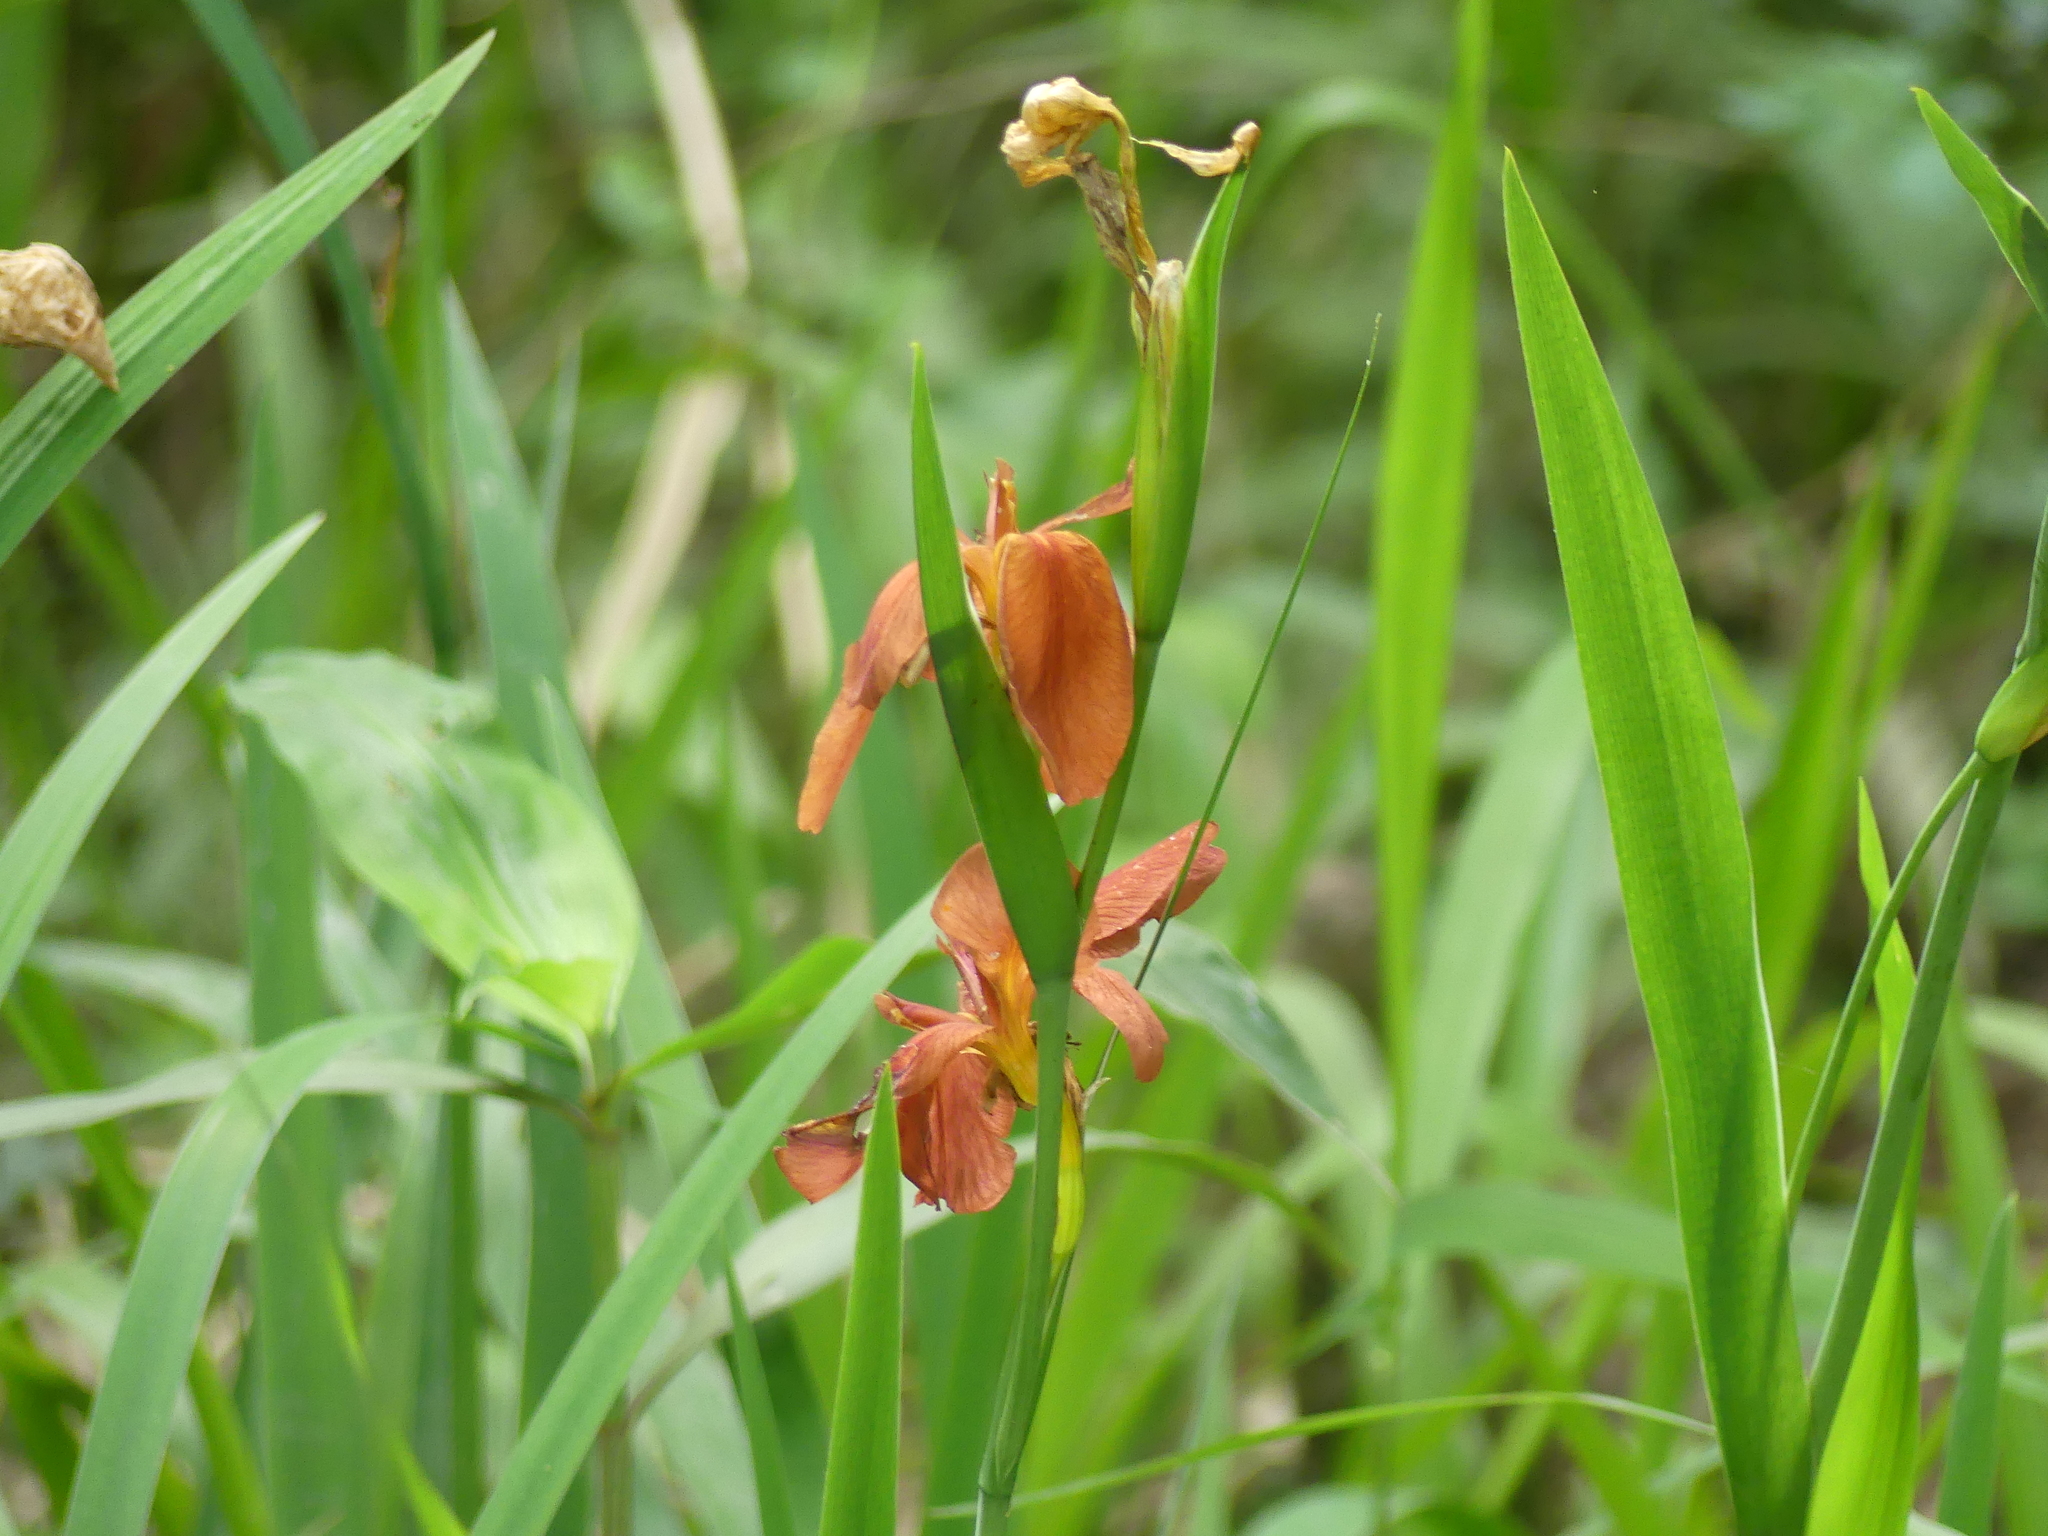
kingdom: Plantae
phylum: Tracheophyta
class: Liliopsida
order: Asparagales
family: Iridaceae
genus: Iris
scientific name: Iris fulva
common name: Copper iris
